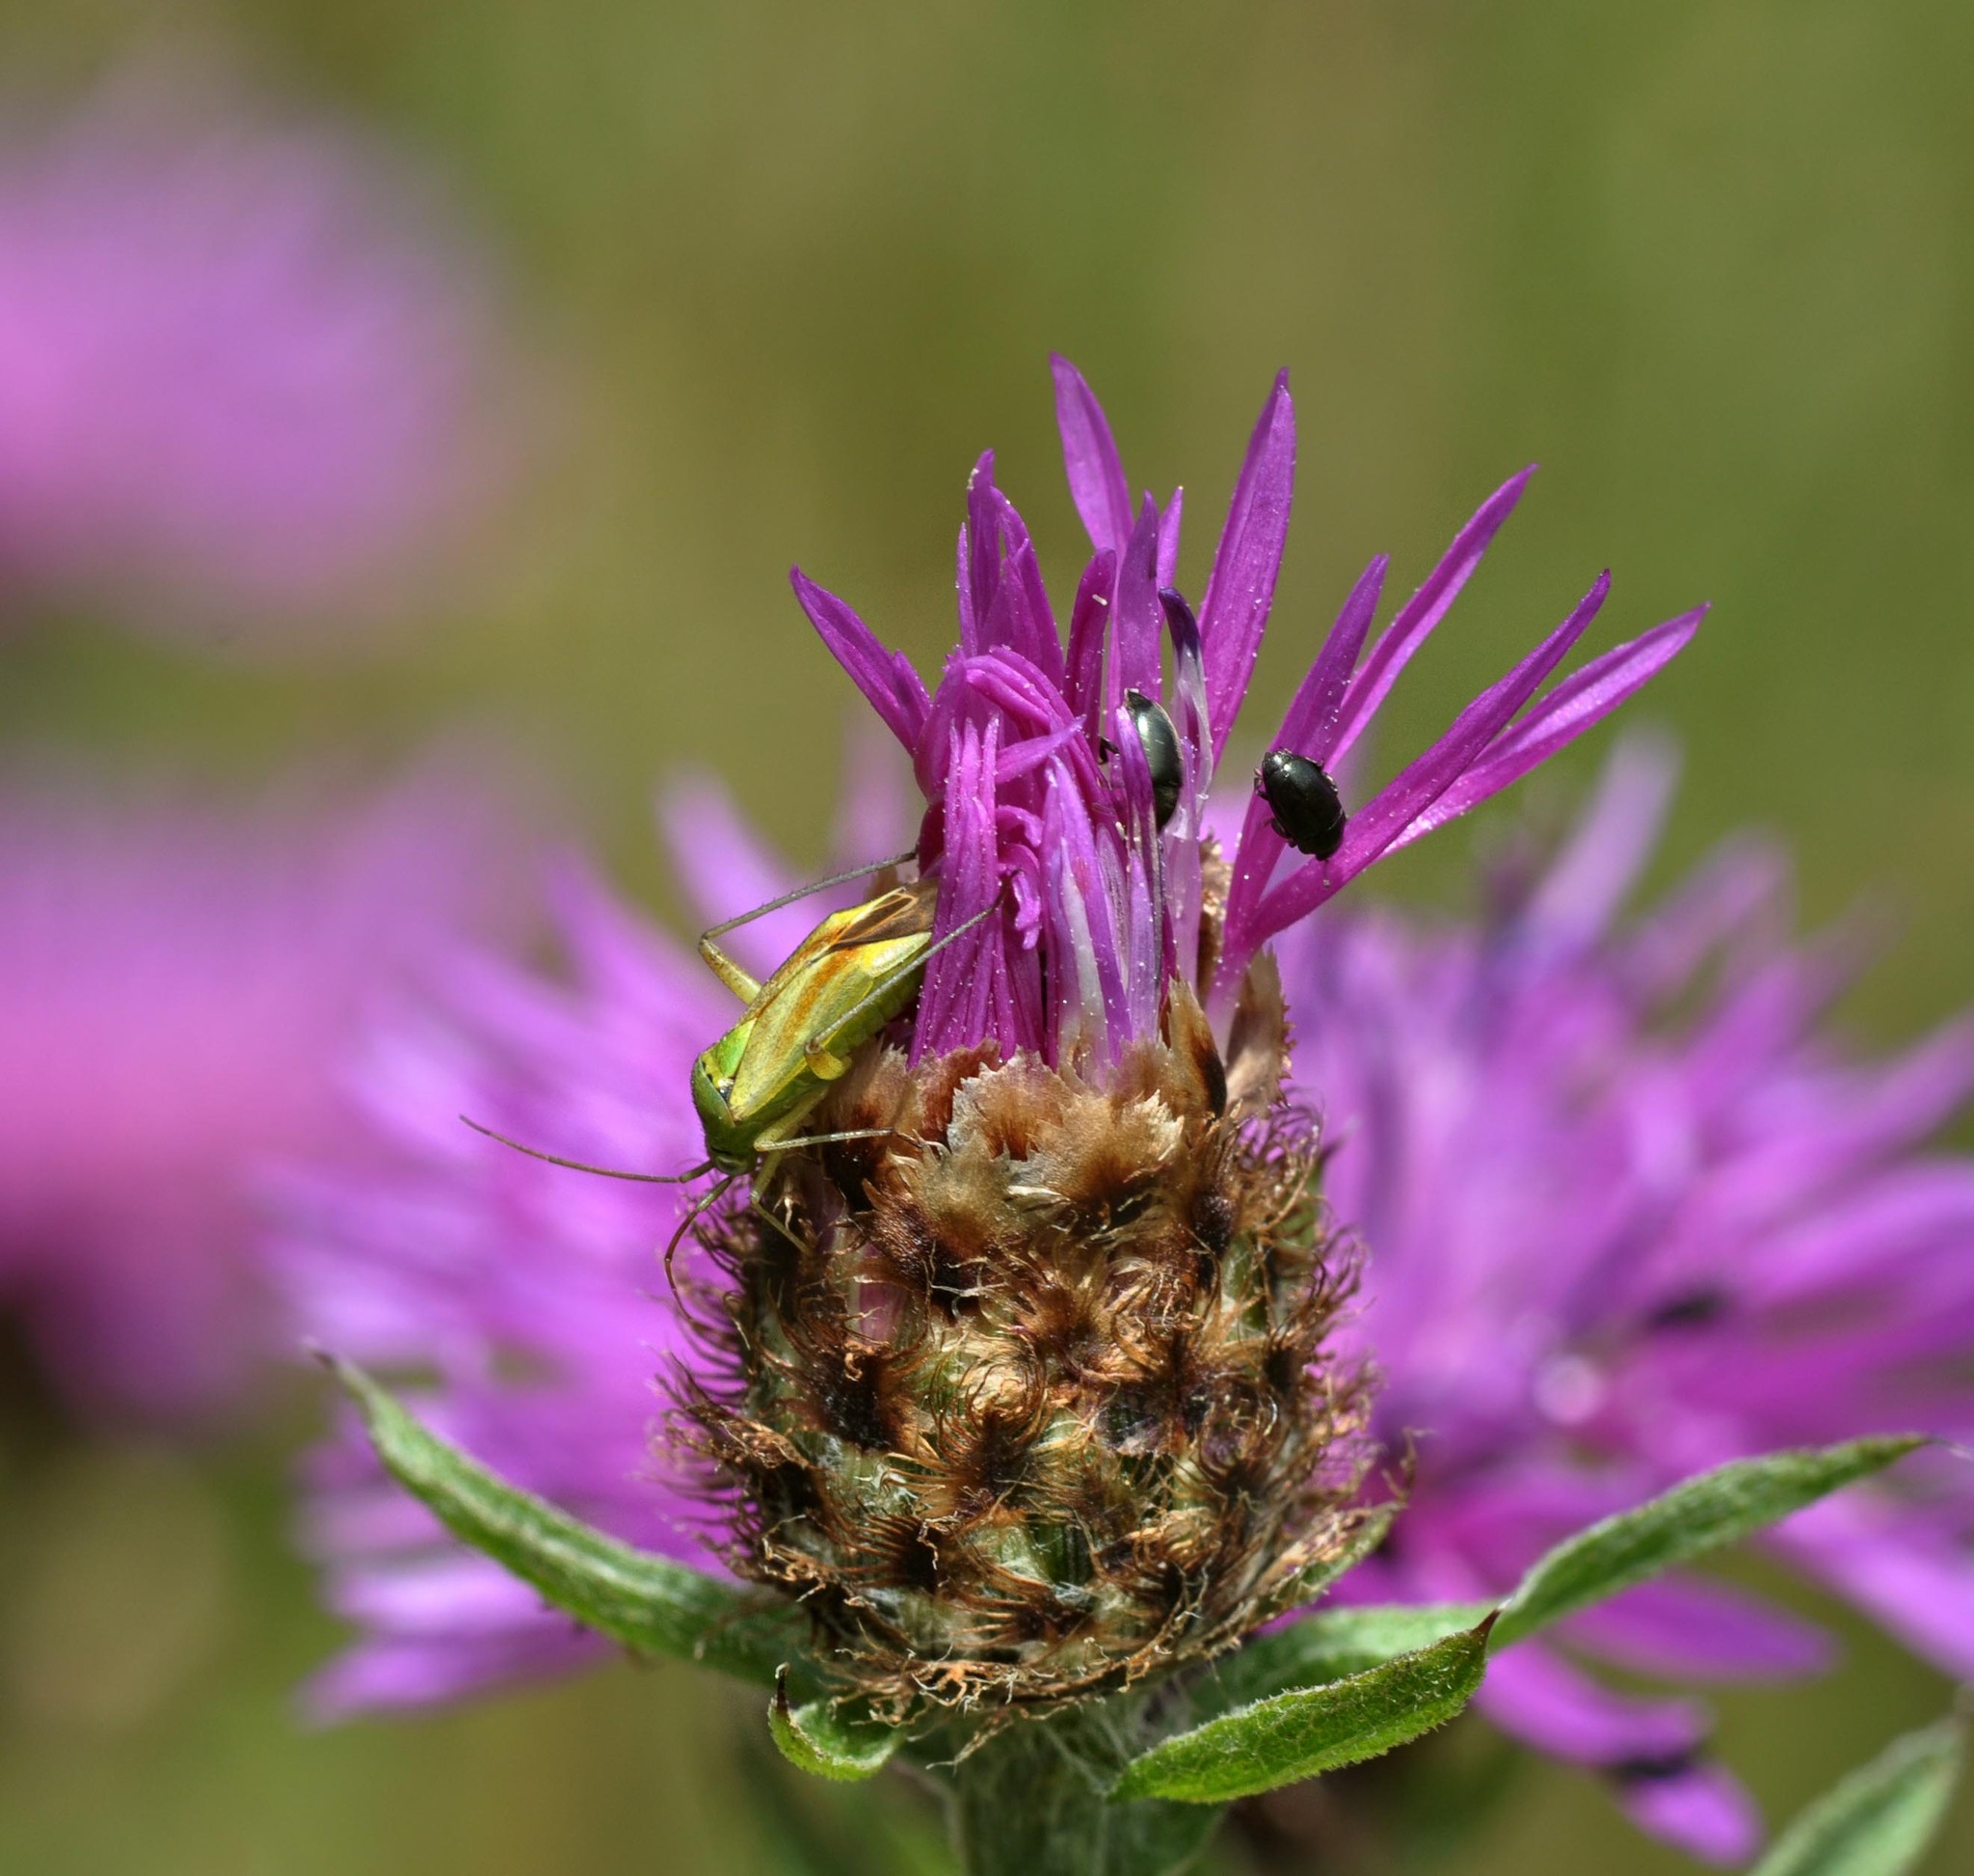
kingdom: Animalia
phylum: Arthropoda
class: Insecta
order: Hemiptera
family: Miridae
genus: Closterotomus
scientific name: Closterotomus norvegicus
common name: Plant bug
